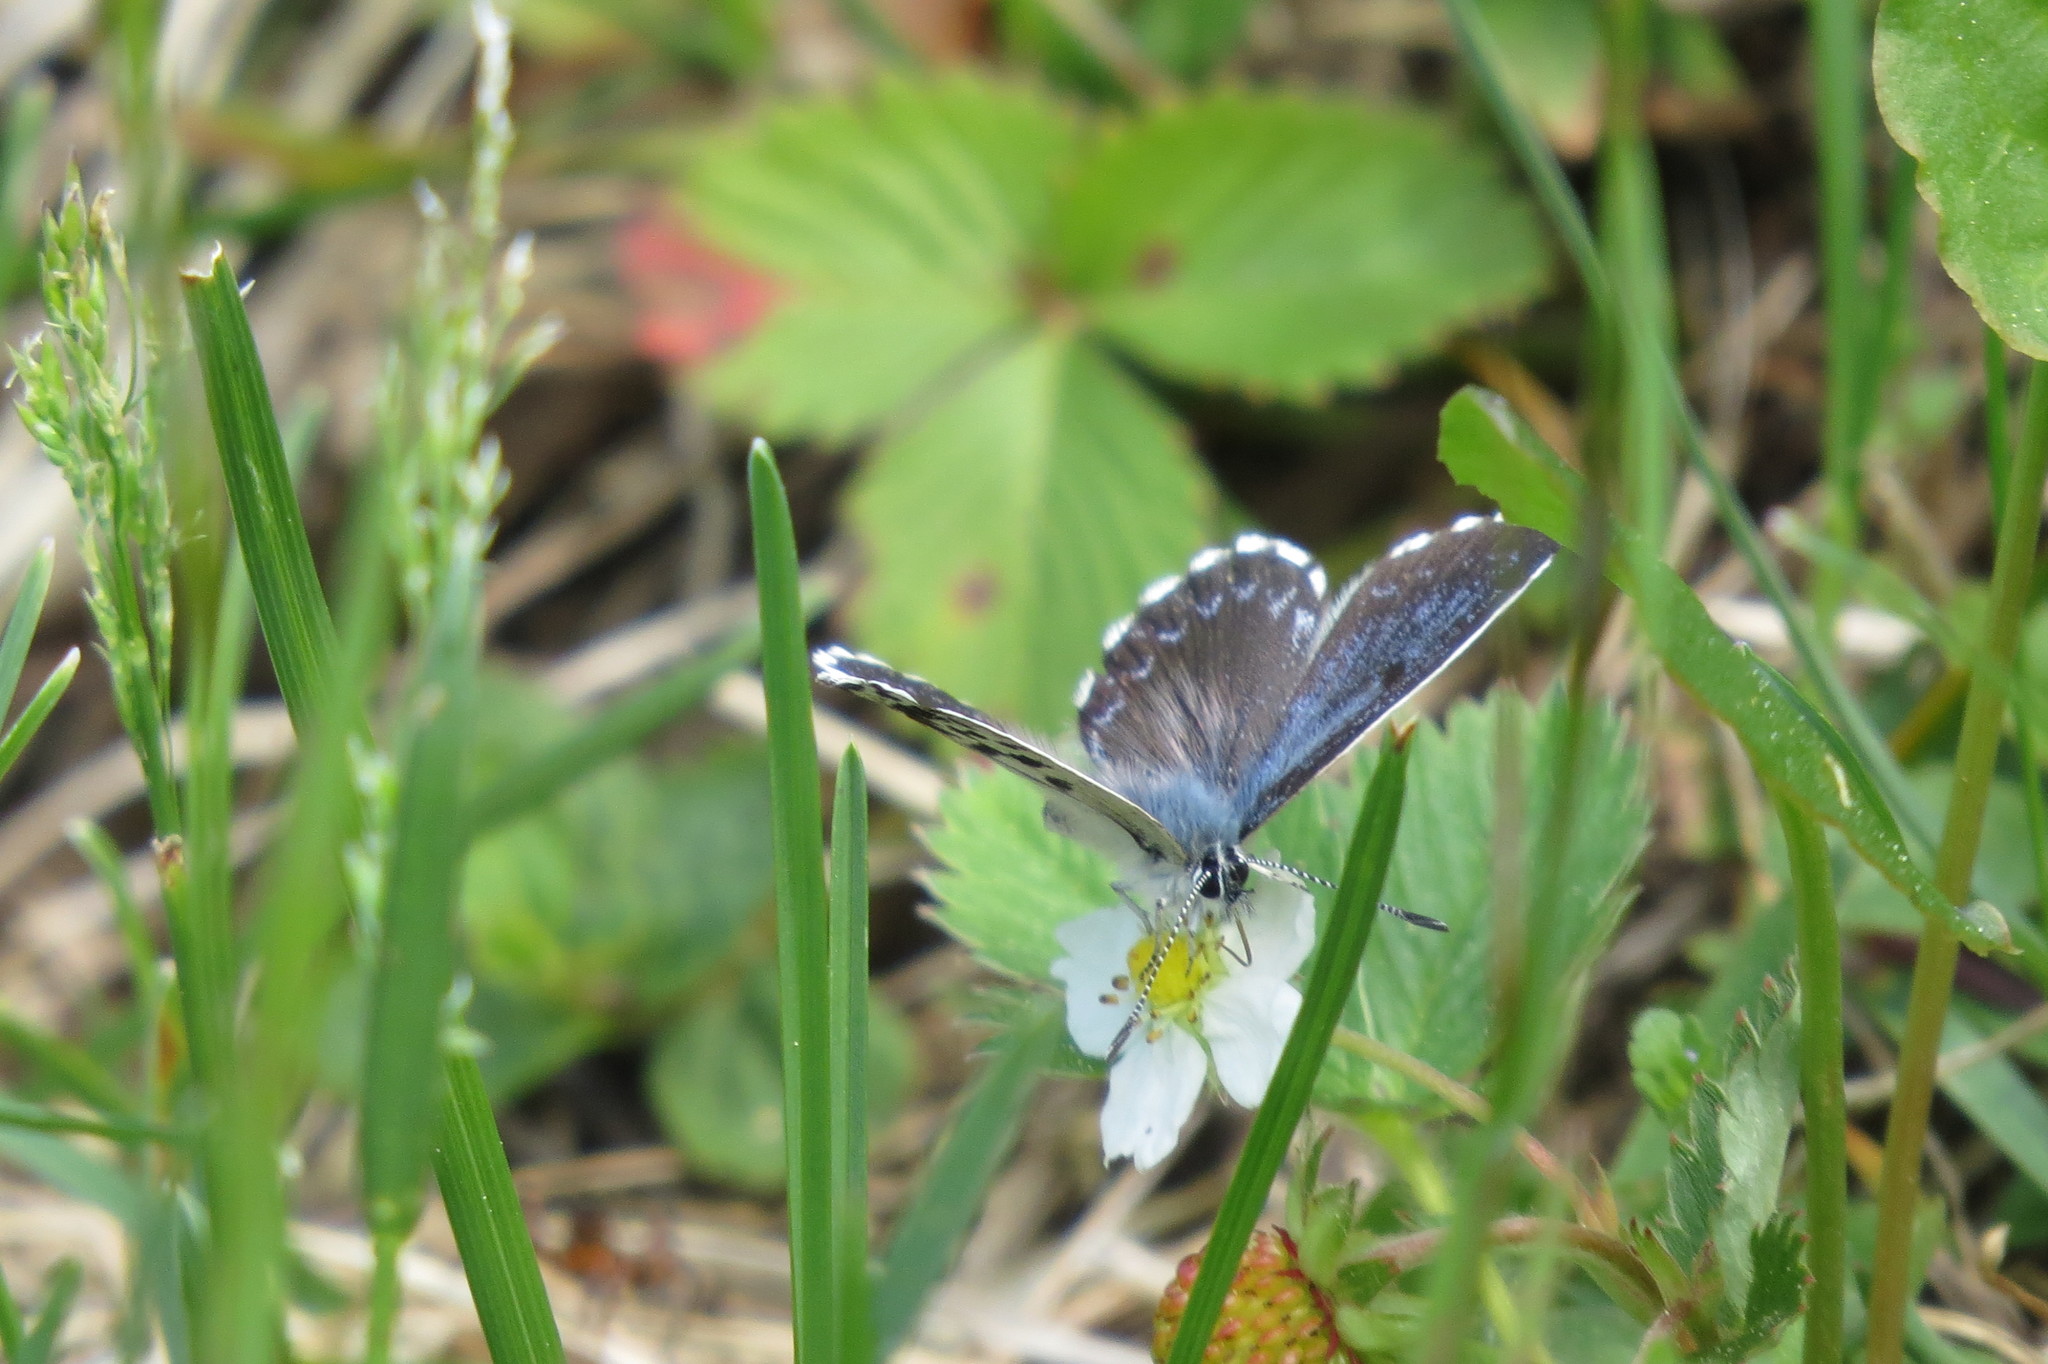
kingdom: Animalia
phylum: Arthropoda
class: Insecta
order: Lepidoptera
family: Lycaenidae
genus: Scolitantides
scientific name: Scolitantides orion
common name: Chequered blue
